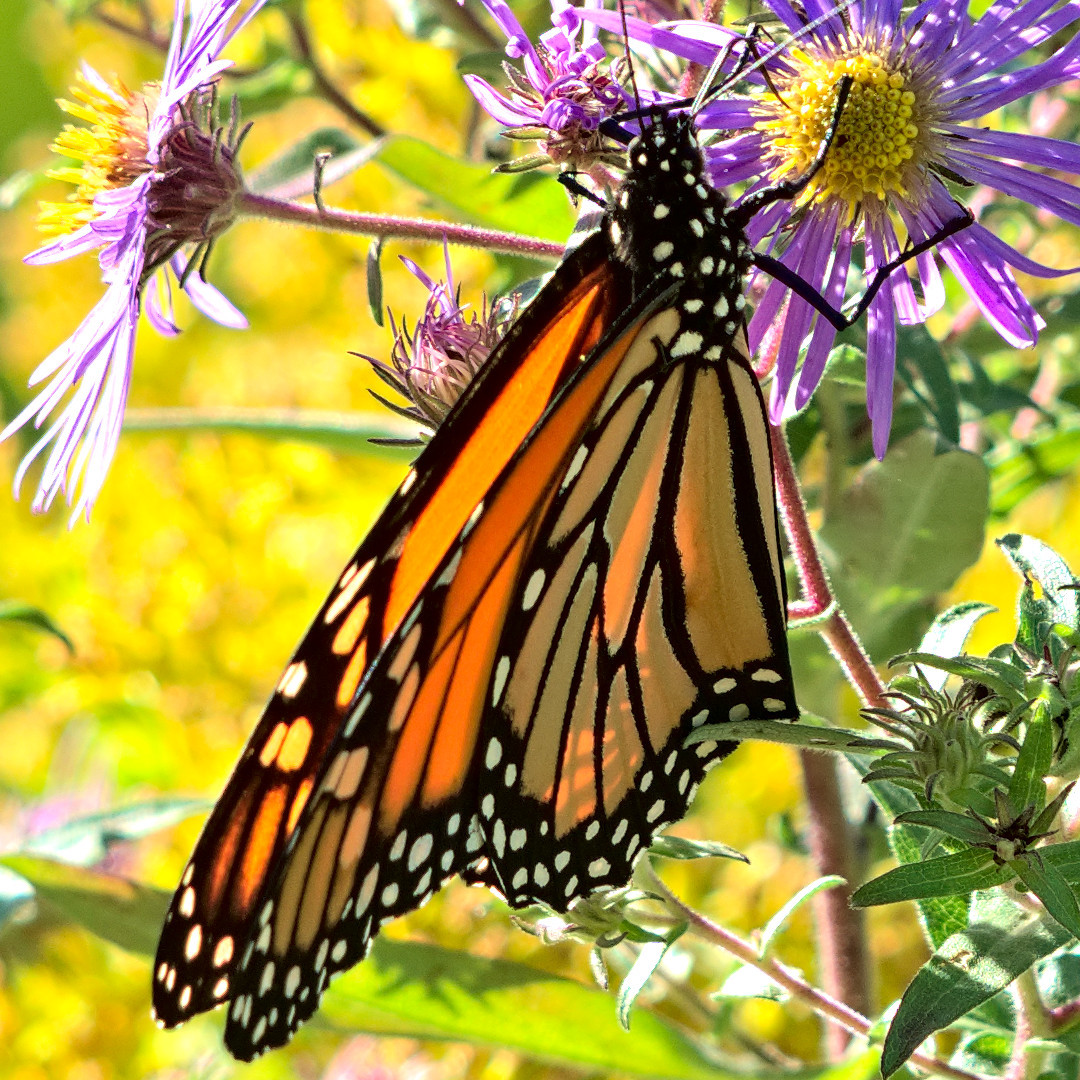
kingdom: Animalia
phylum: Arthropoda
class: Insecta
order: Lepidoptera
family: Nymphalidae
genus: Danaus
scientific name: Danaus plexippus
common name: Monarch
